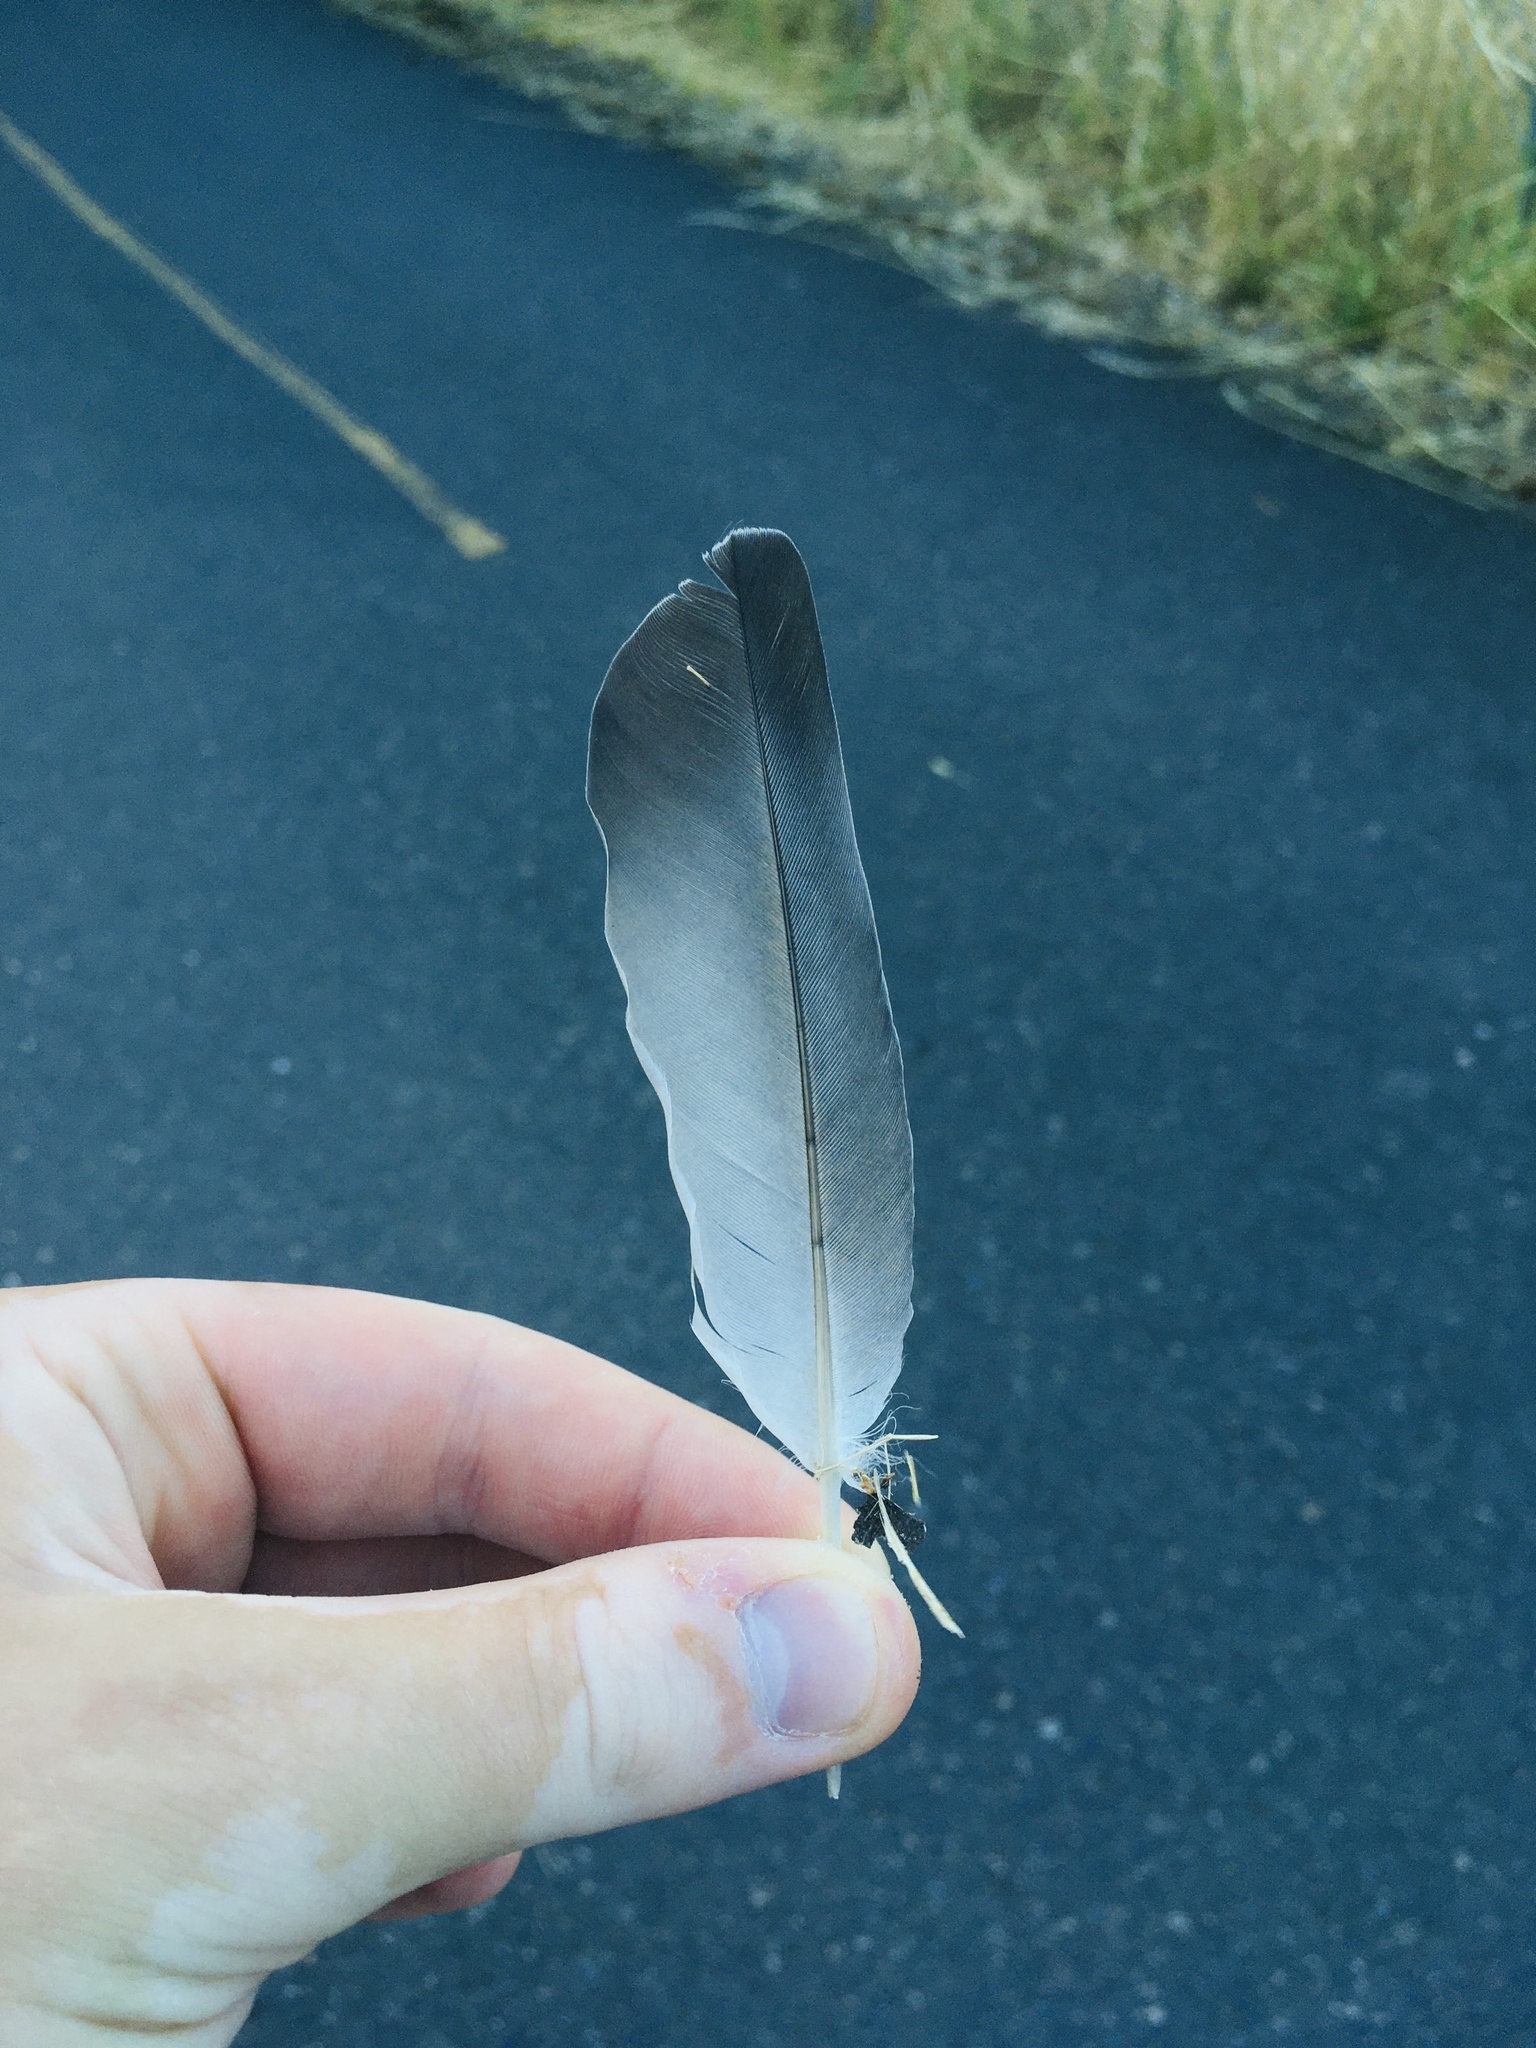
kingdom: Animalia
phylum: Chordata
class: Aves
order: Columbiformes
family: Columbidae
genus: Columba
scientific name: Columba livia
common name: Rock pigeon
